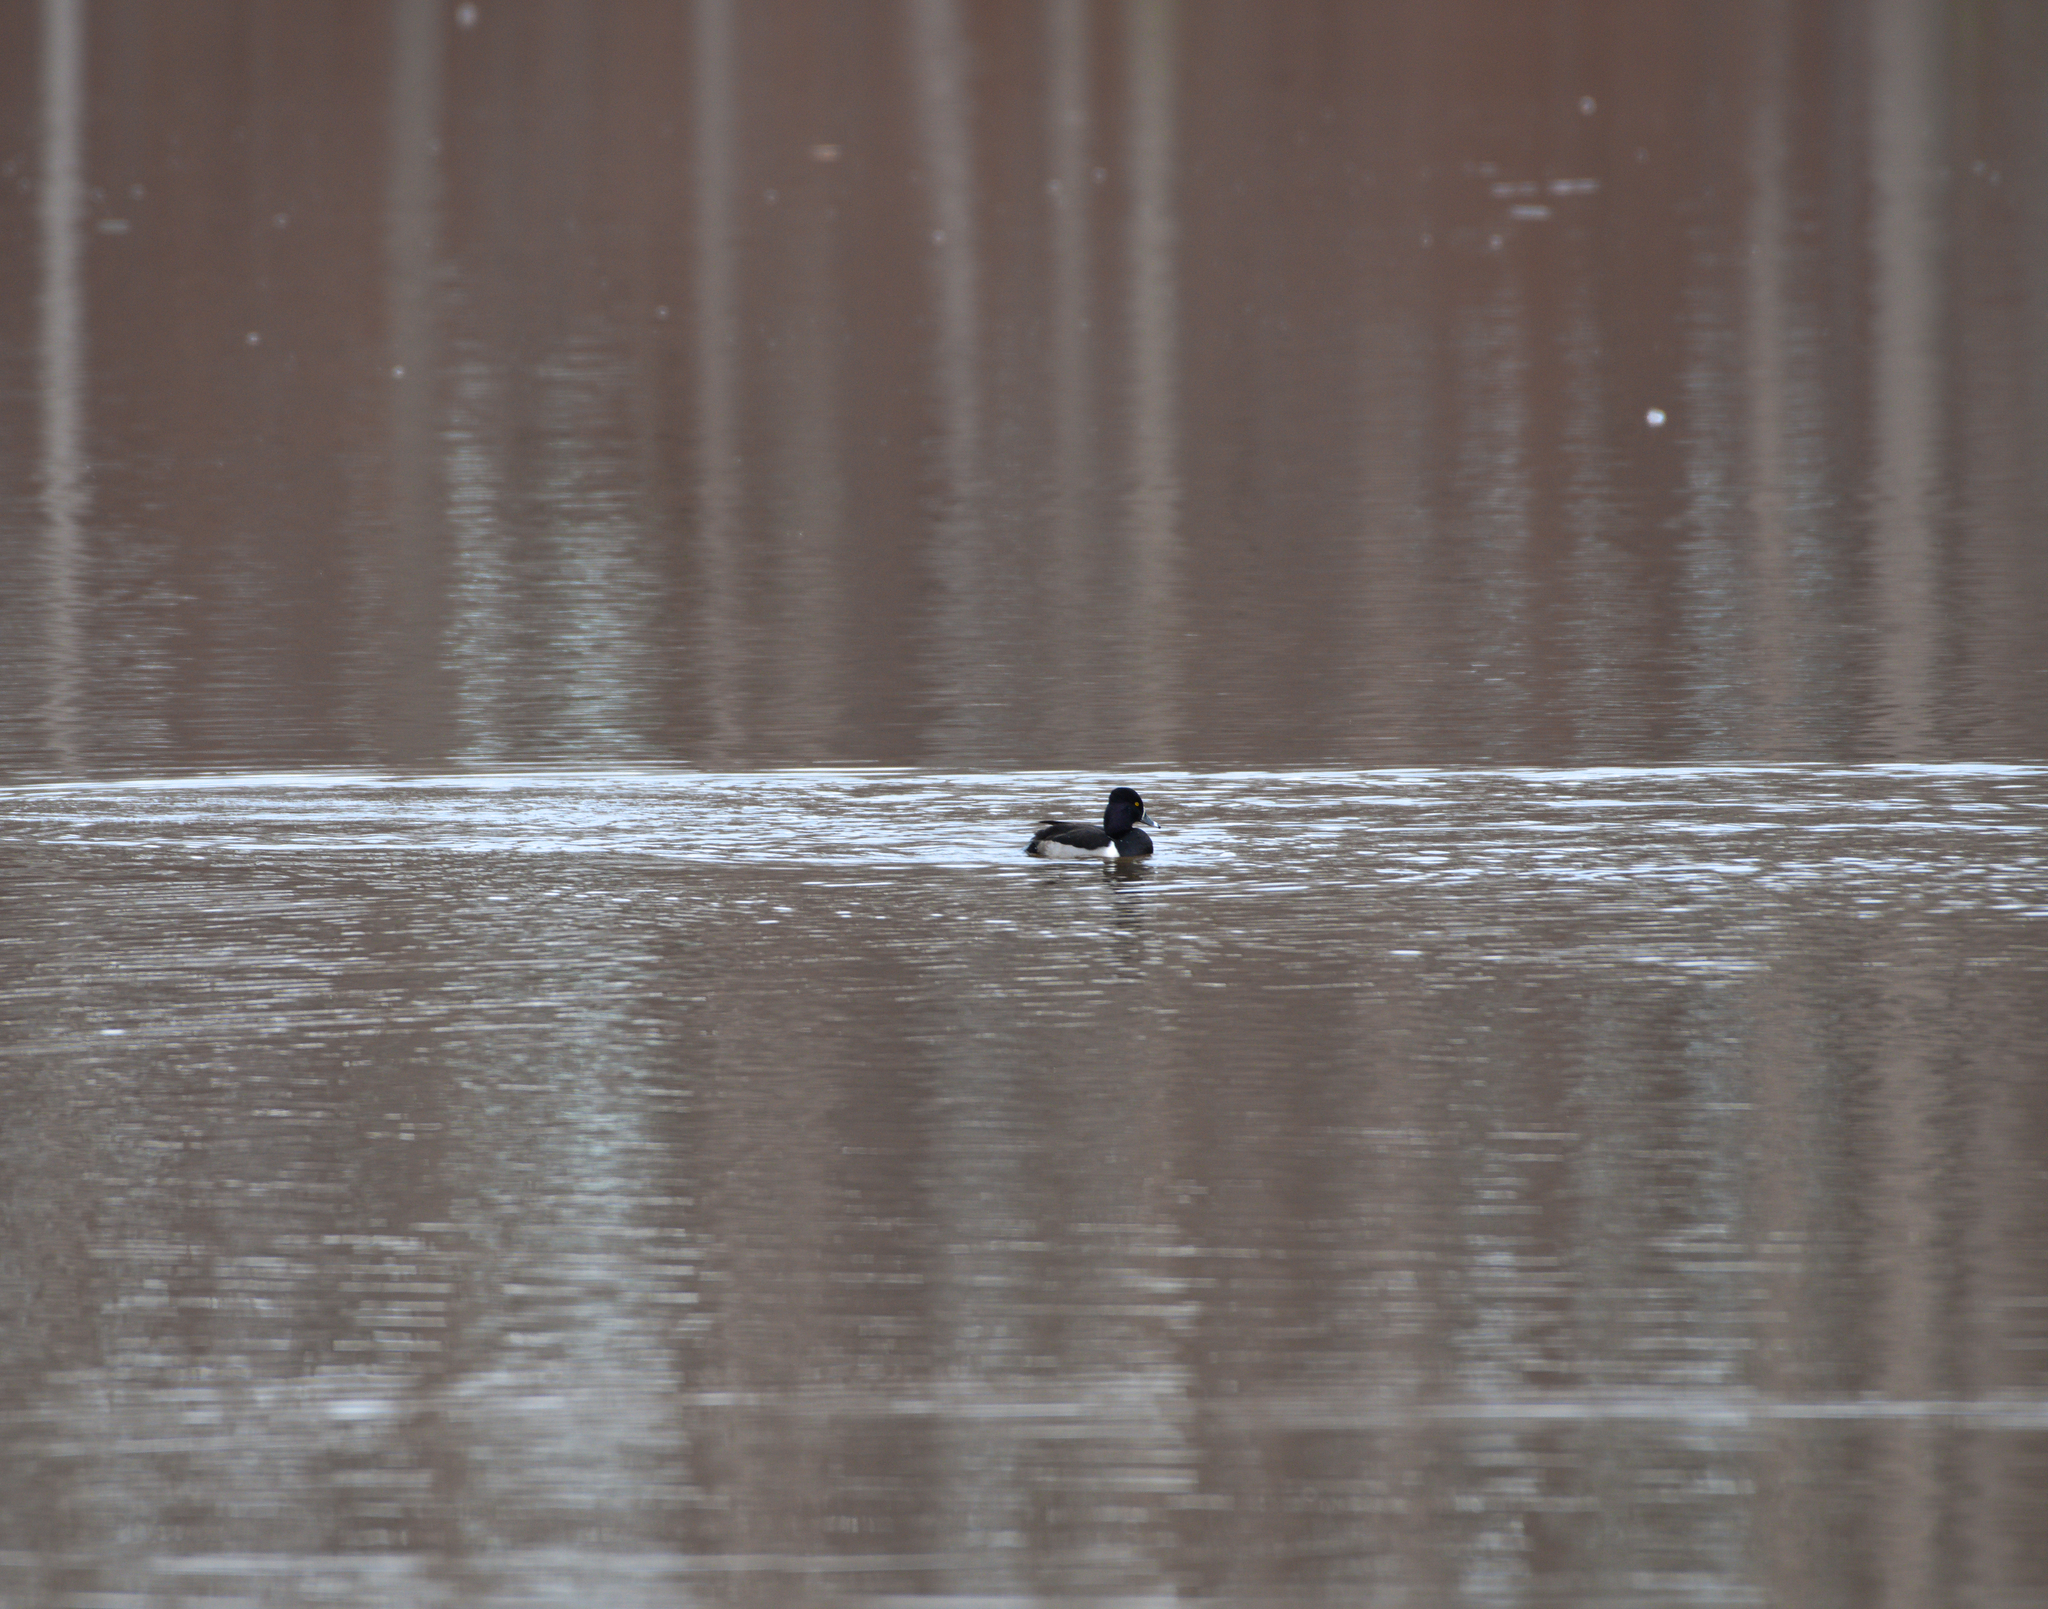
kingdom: Animalia
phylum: Chordata
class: Aves
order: Anseriformes
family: Anatidae
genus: Aythya
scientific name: Aythya collaris
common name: Ring-necked duck
